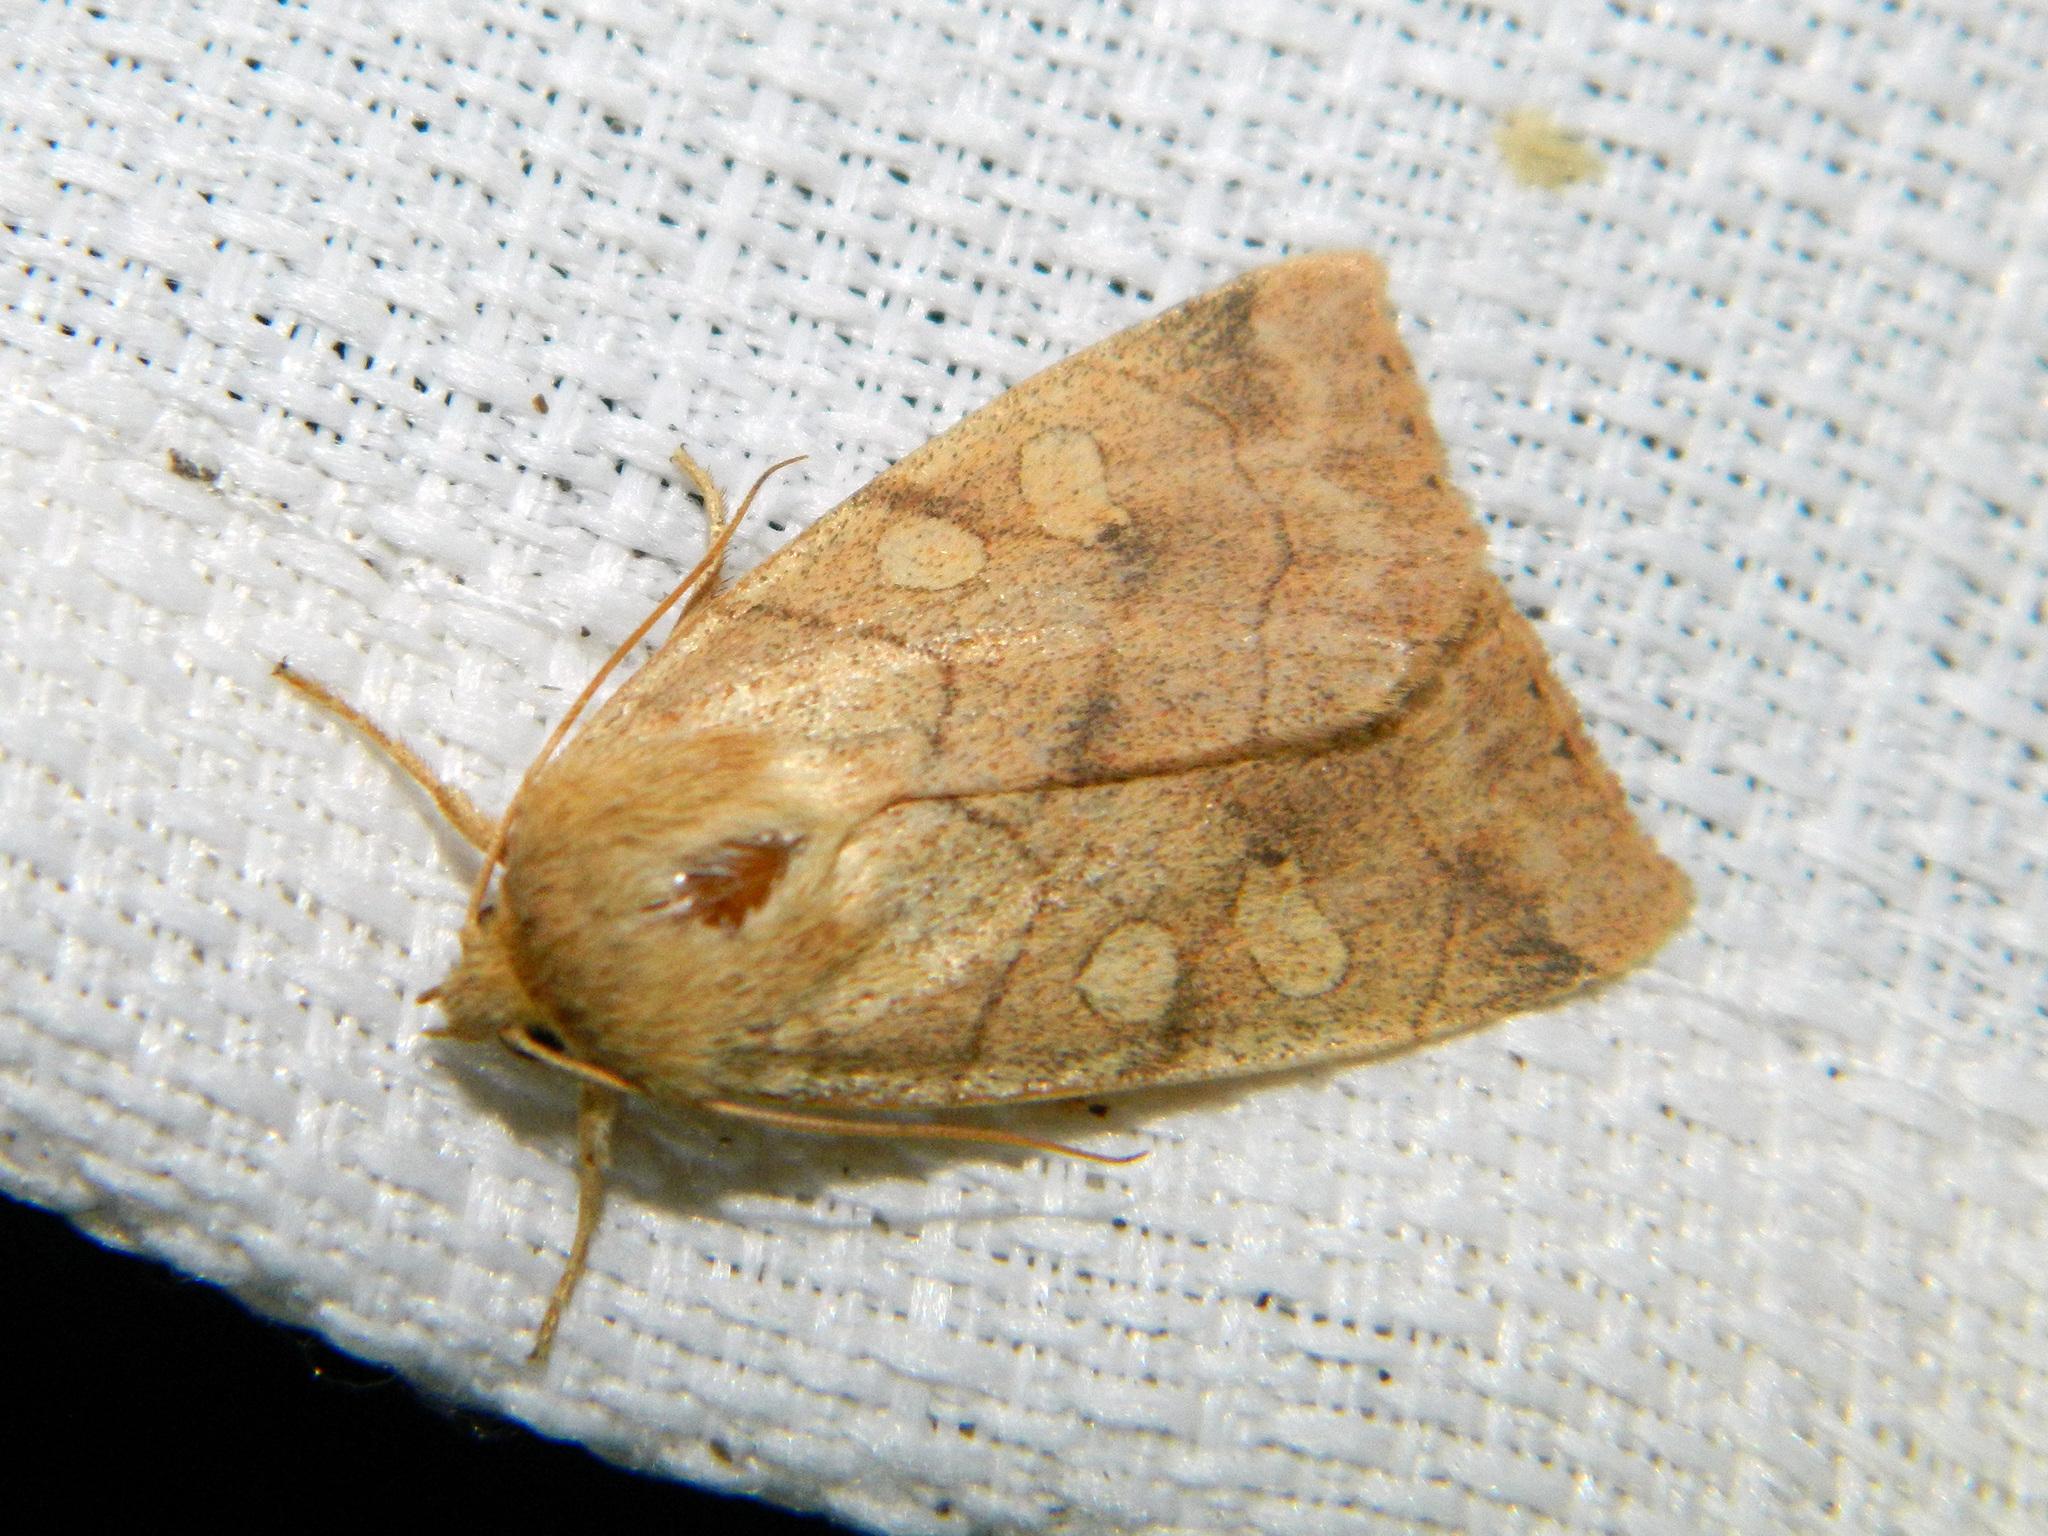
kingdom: Animalia
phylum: Arthropoda
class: Insecta
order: Lepidoptera
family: Noctuidae
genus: Enargia
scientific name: Enargia decolor
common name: Aspen twoleaf tier moth
